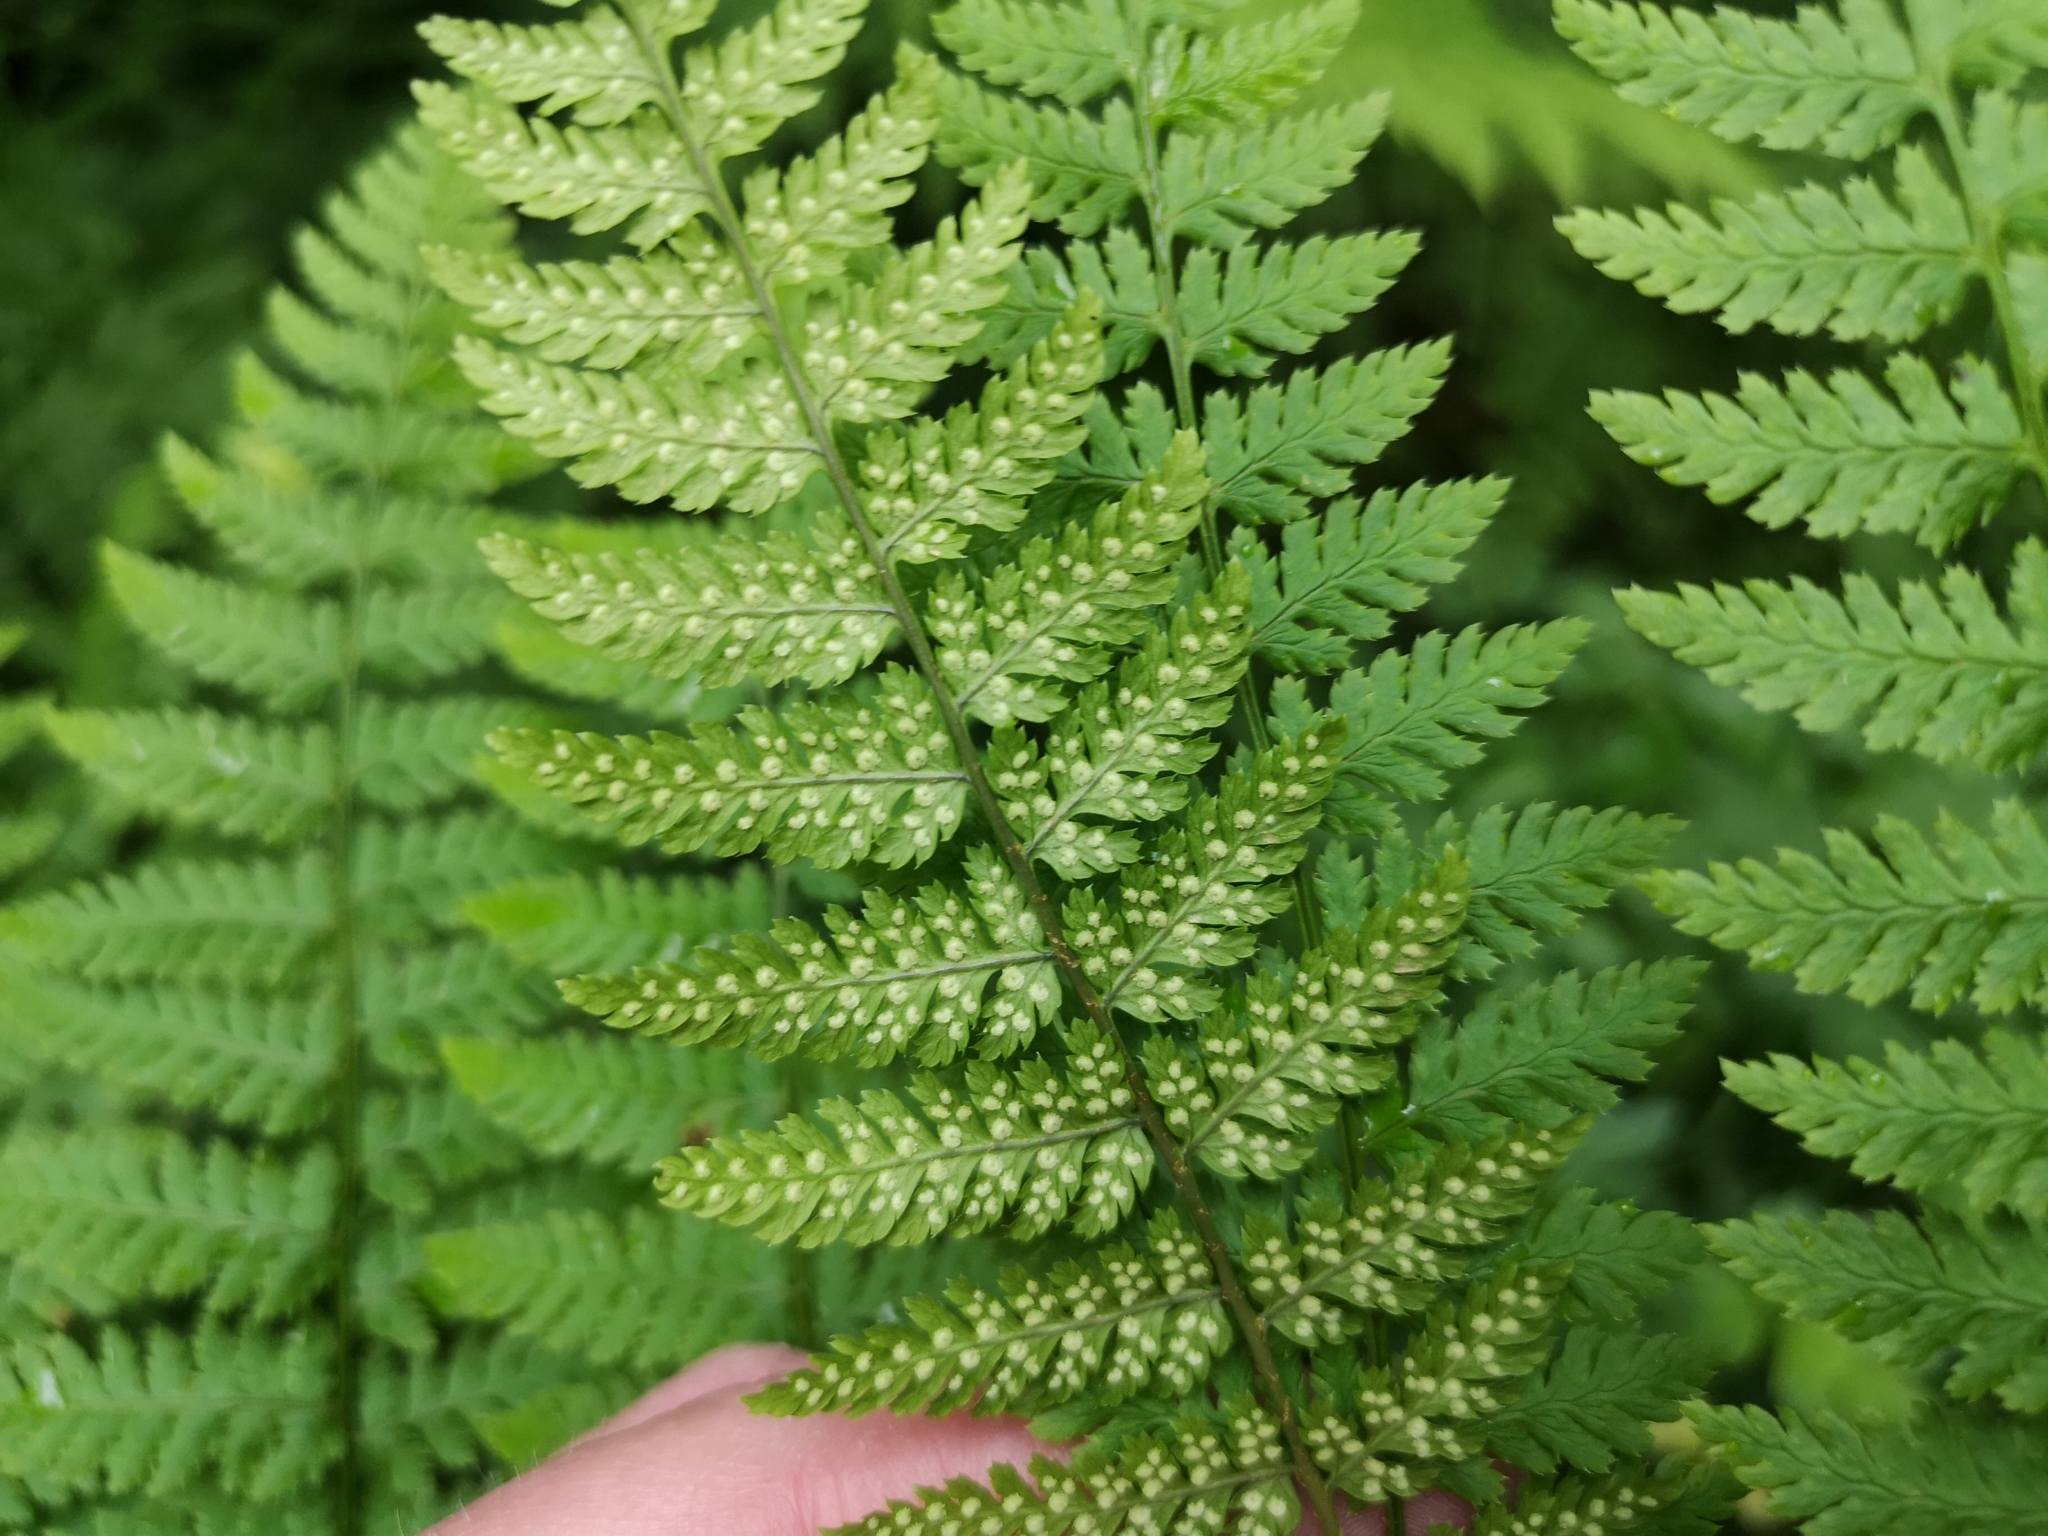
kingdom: Plantae
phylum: Tracheophyta
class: Polypodiopsida
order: Polypodiales
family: Dryopteridaceae
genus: Dryopteris
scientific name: Dryopteris expansa
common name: Northern buckler fern
